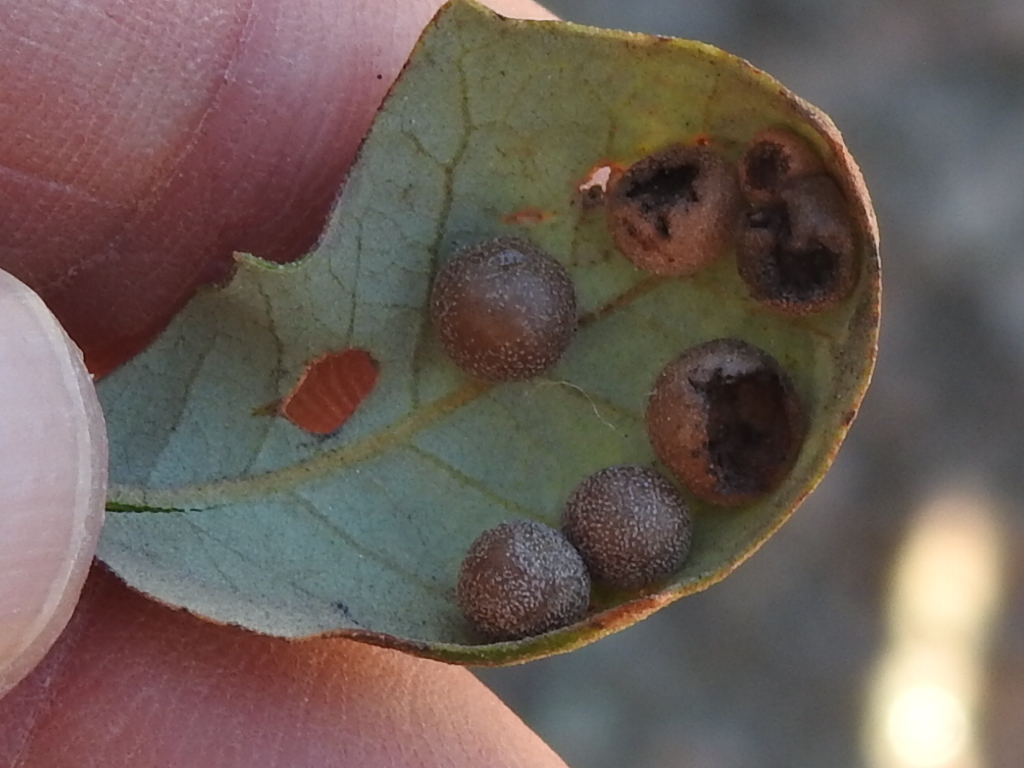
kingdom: Animalia
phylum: Arthropoda
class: Insecta
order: Hymenoptera
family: Cynipidae
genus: Belonocnema
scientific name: Belonocnema kinseyi
